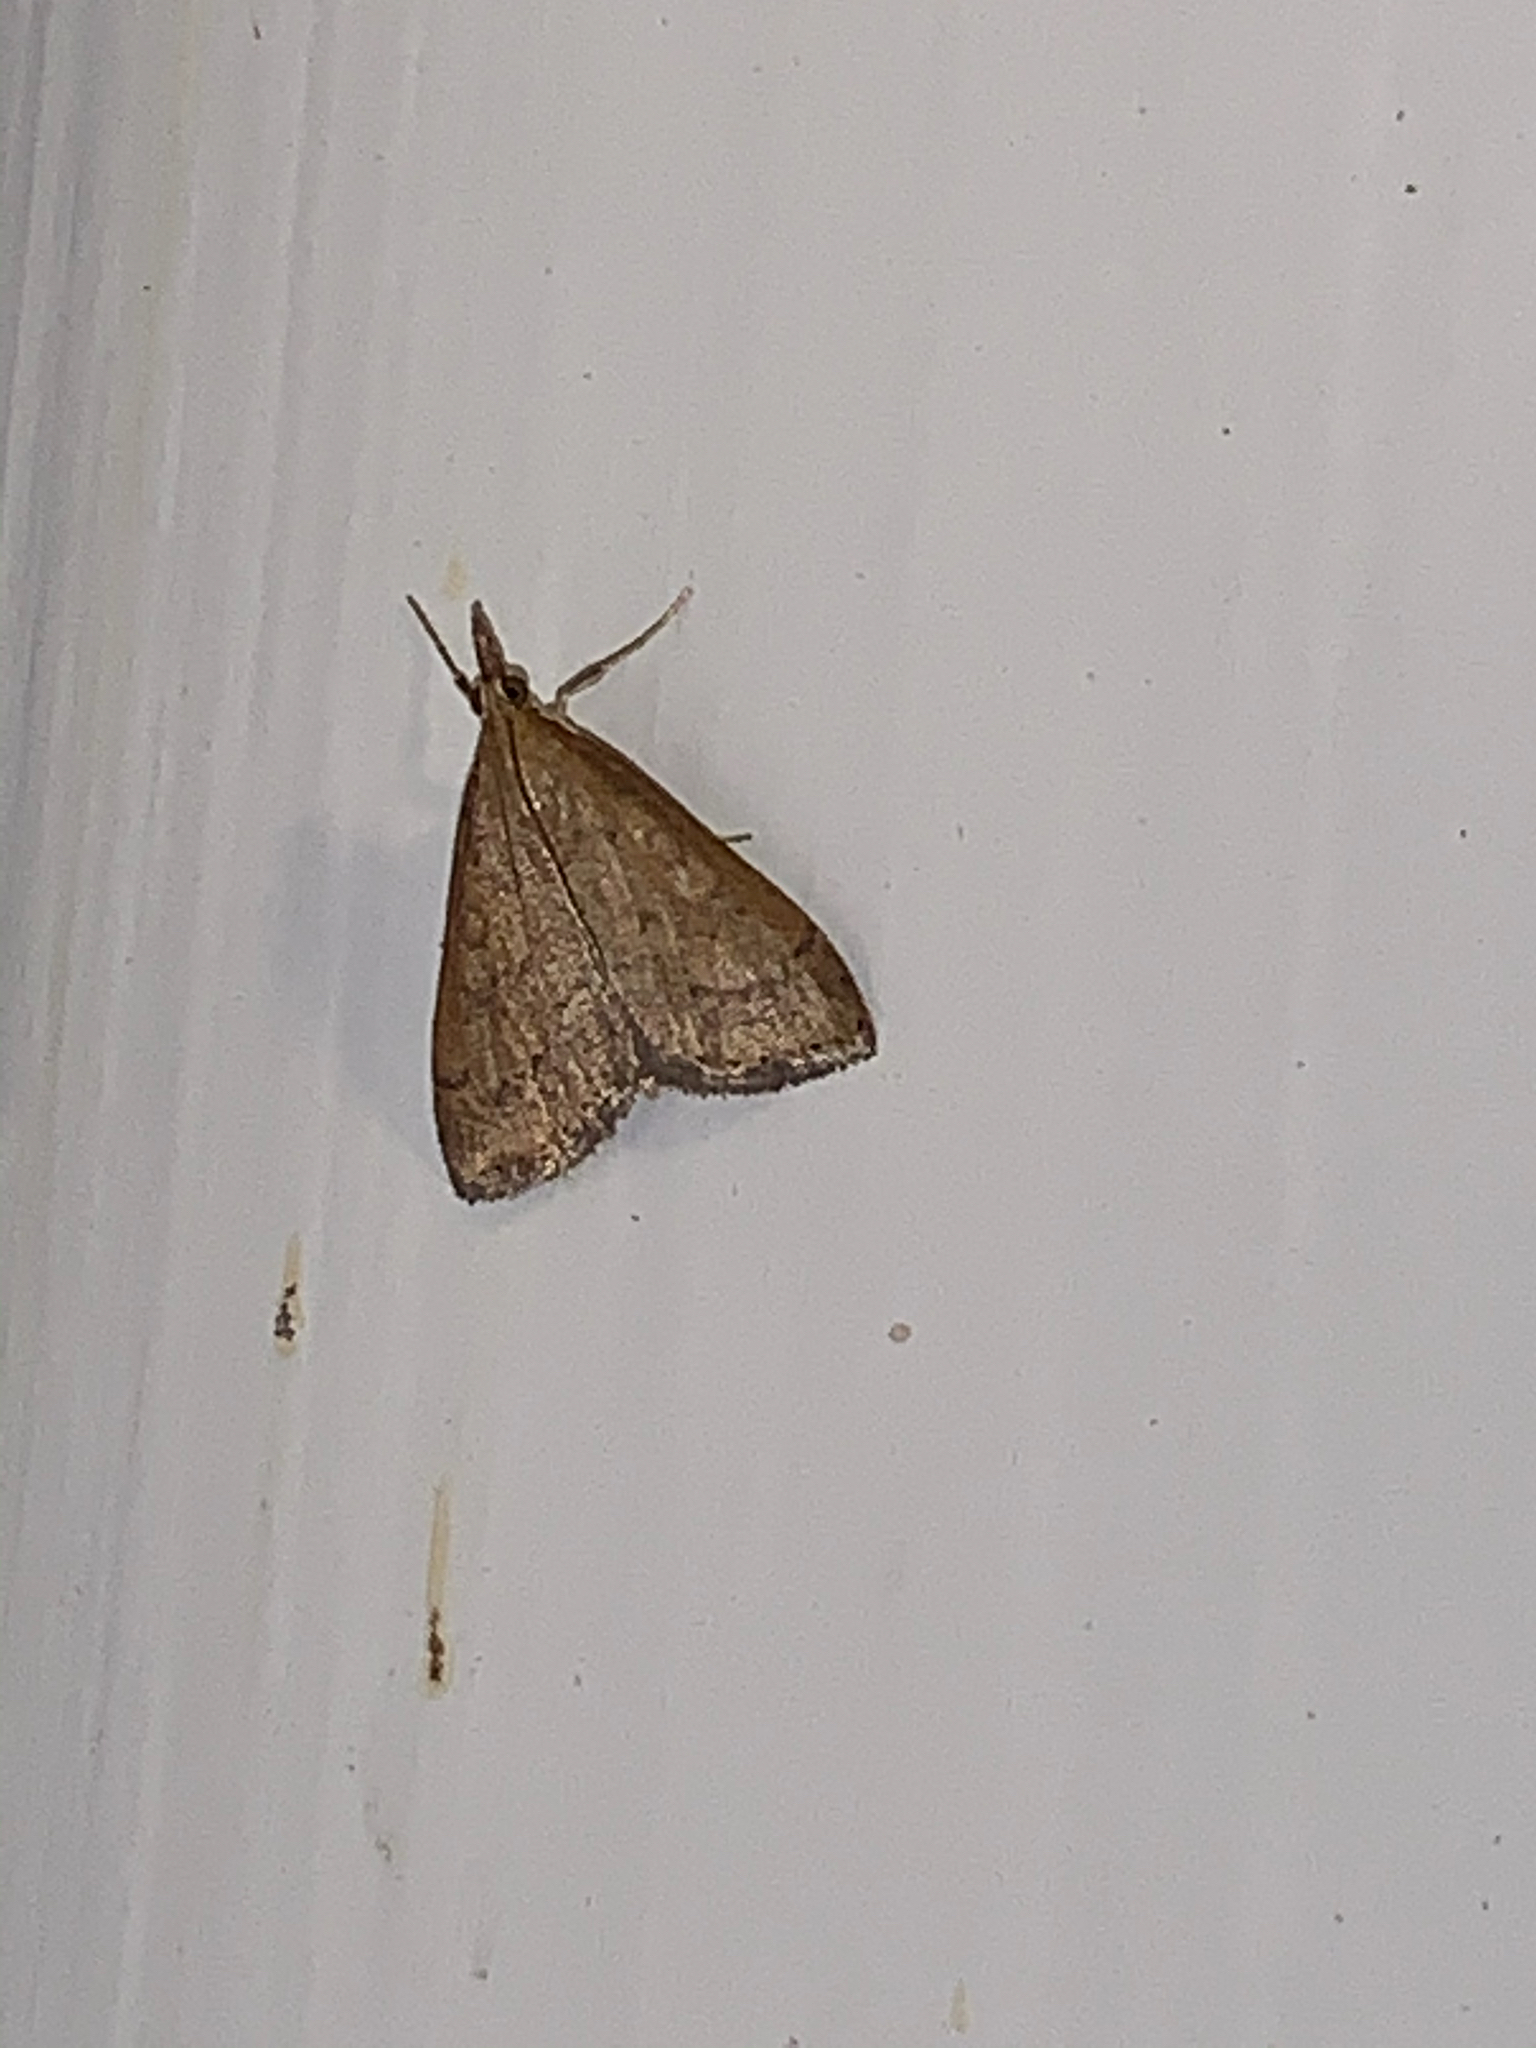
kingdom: Animalia
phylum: Arthropoda
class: Insecta
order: Lepidoptera
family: Crambidae
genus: Udea
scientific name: Udea rubigalis
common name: Celery leaftier moth
